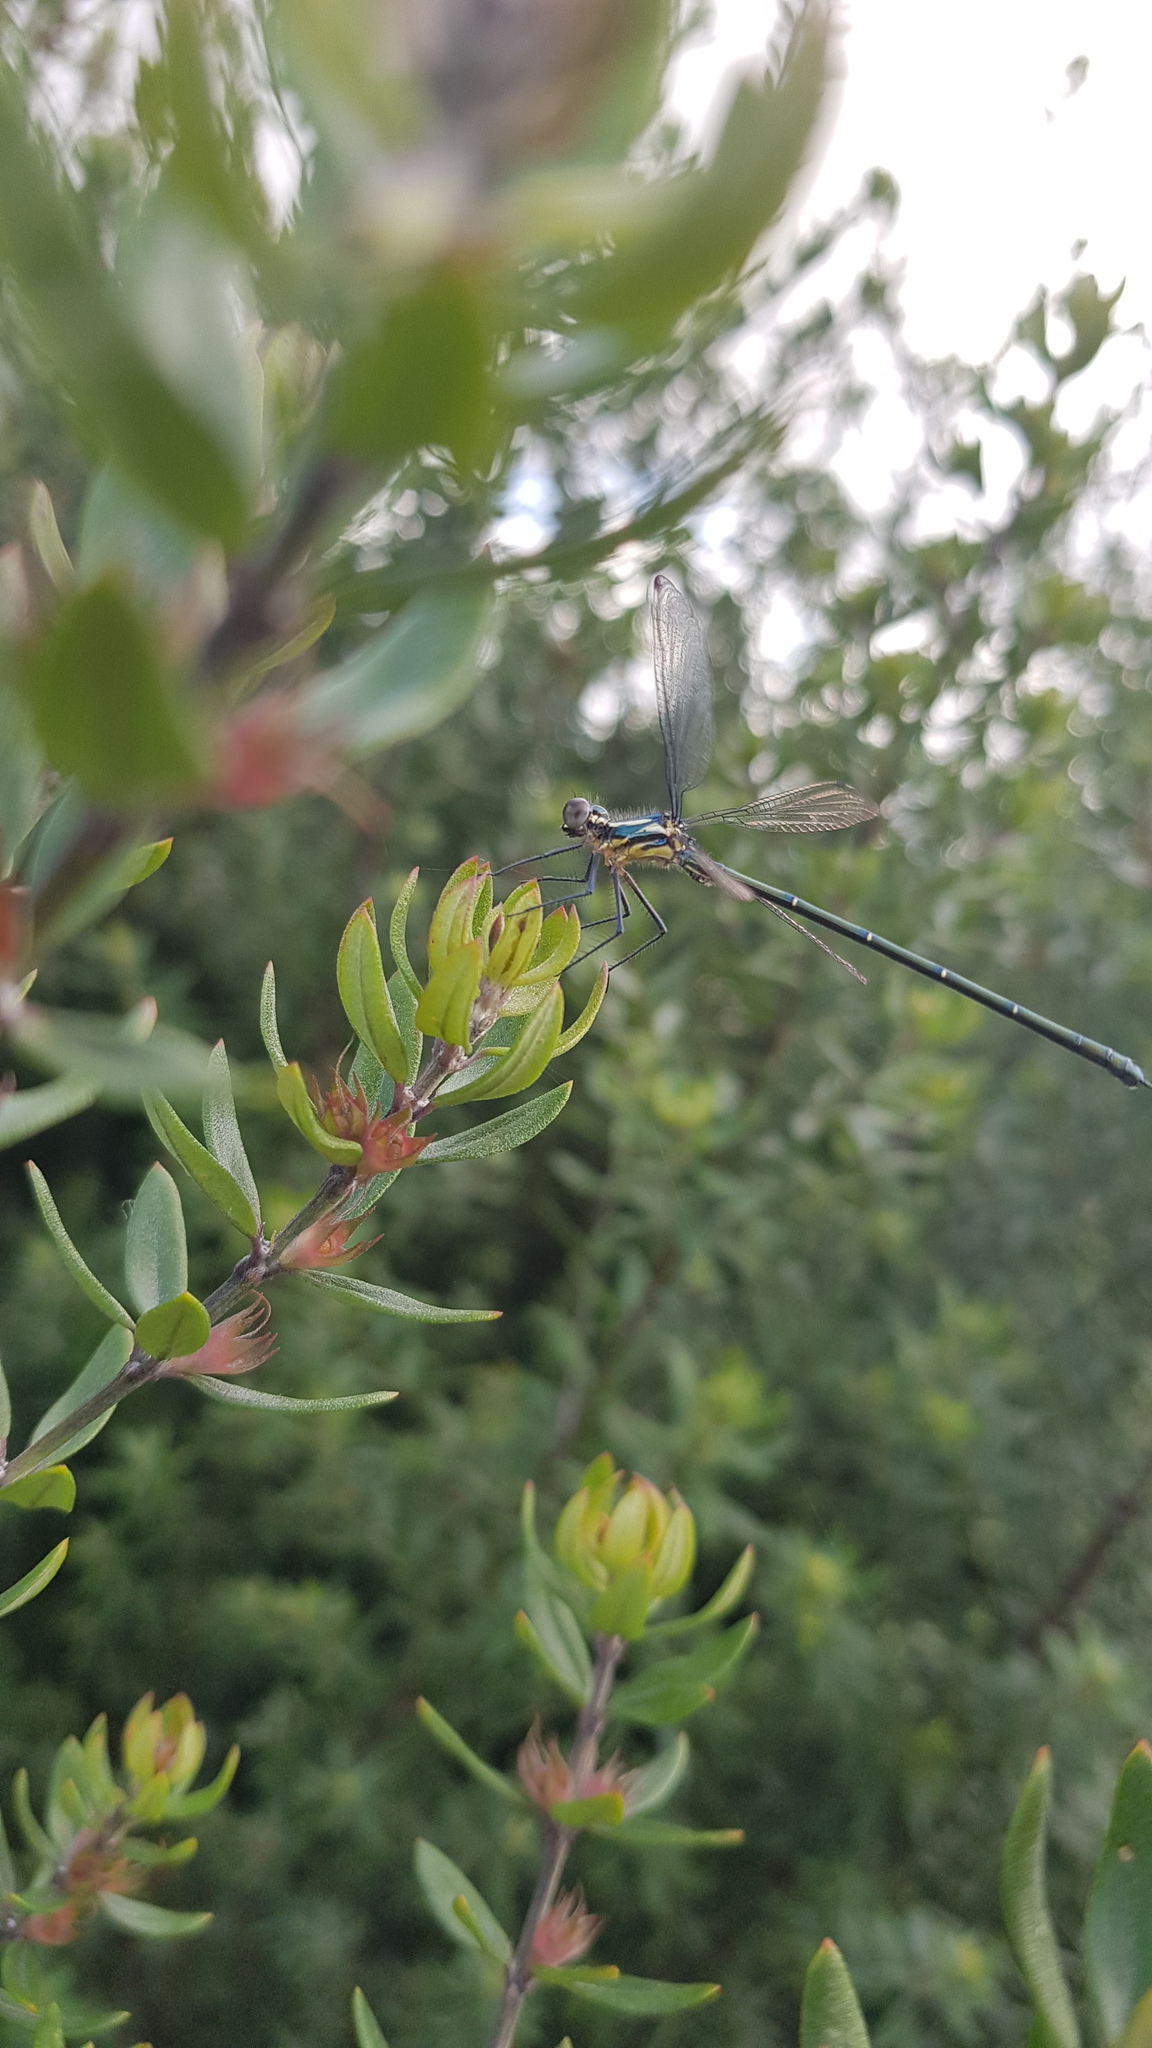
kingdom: Animalia
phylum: Arthropoda
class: Insecta
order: Odonata
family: Argiolestidae
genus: Austroargiolestes
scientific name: Austroargiolestes icteromelas
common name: Common flatwing
